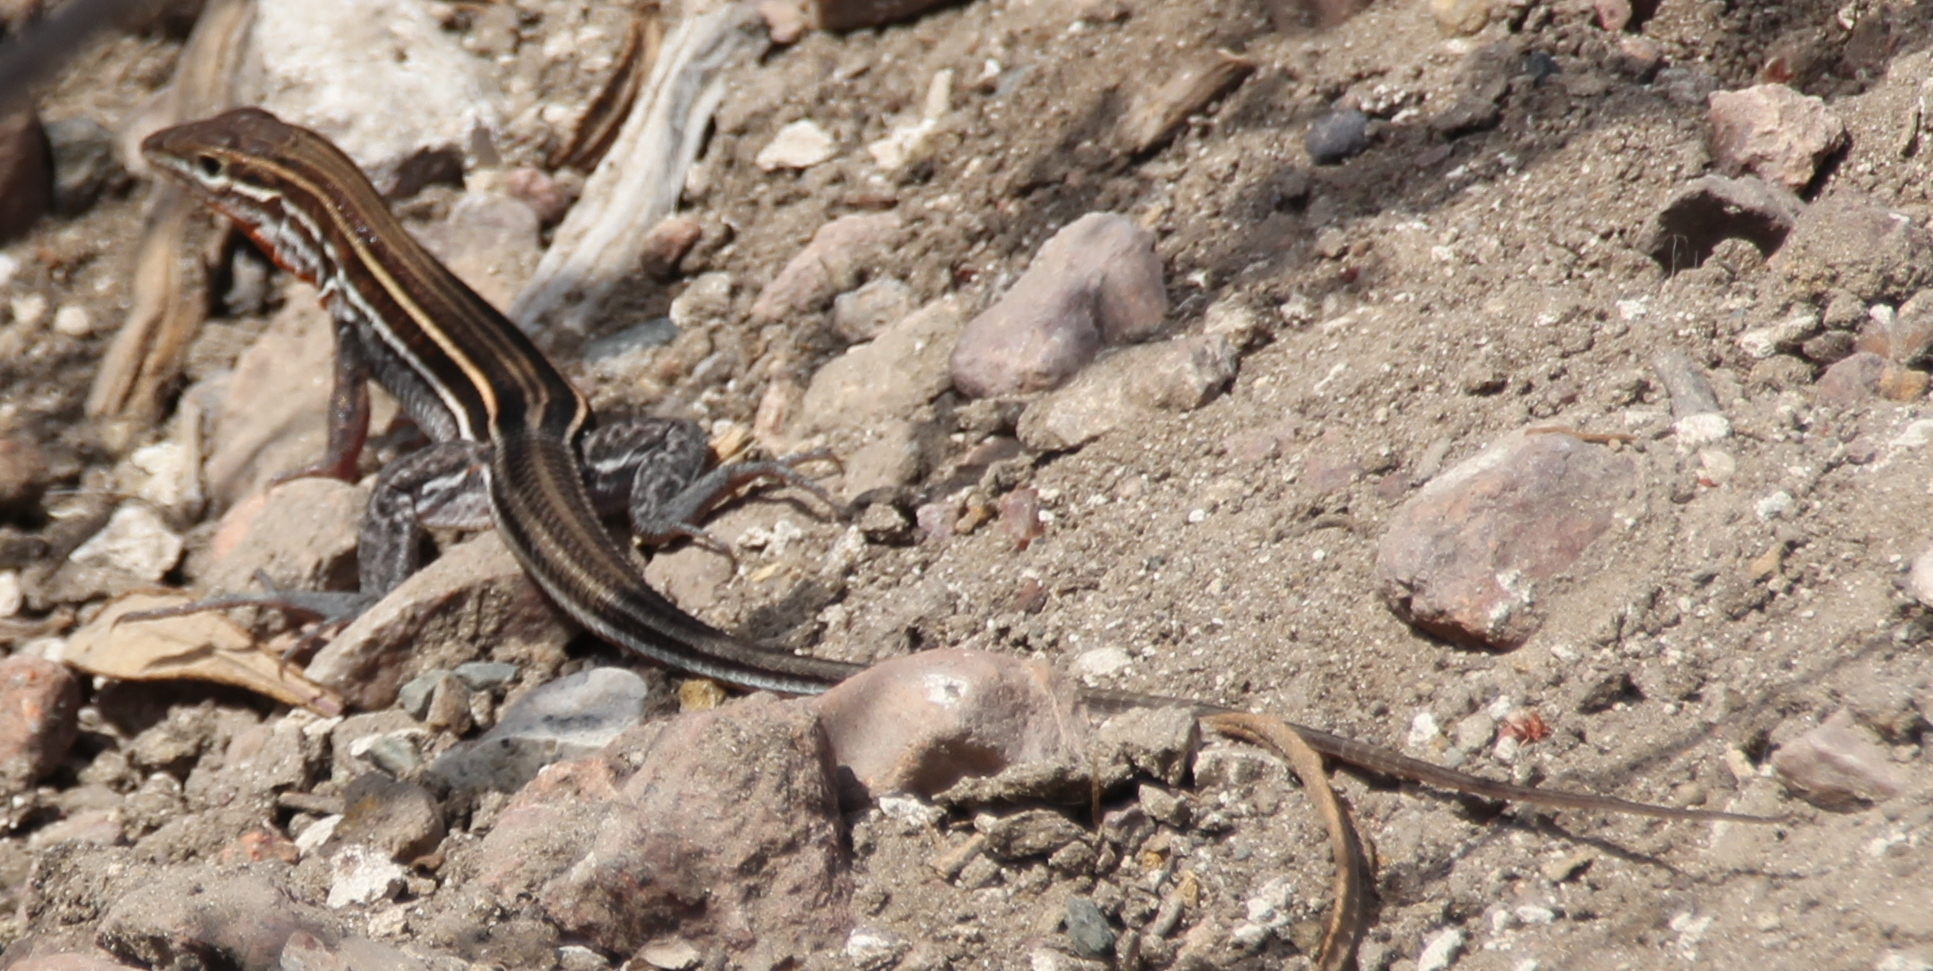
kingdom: Animalia
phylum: Chordata
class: Squamata
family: Teiidae
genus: Aspidoscelis
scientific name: Aspidoscelis hyperythrus
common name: Orange-throated race-runner
